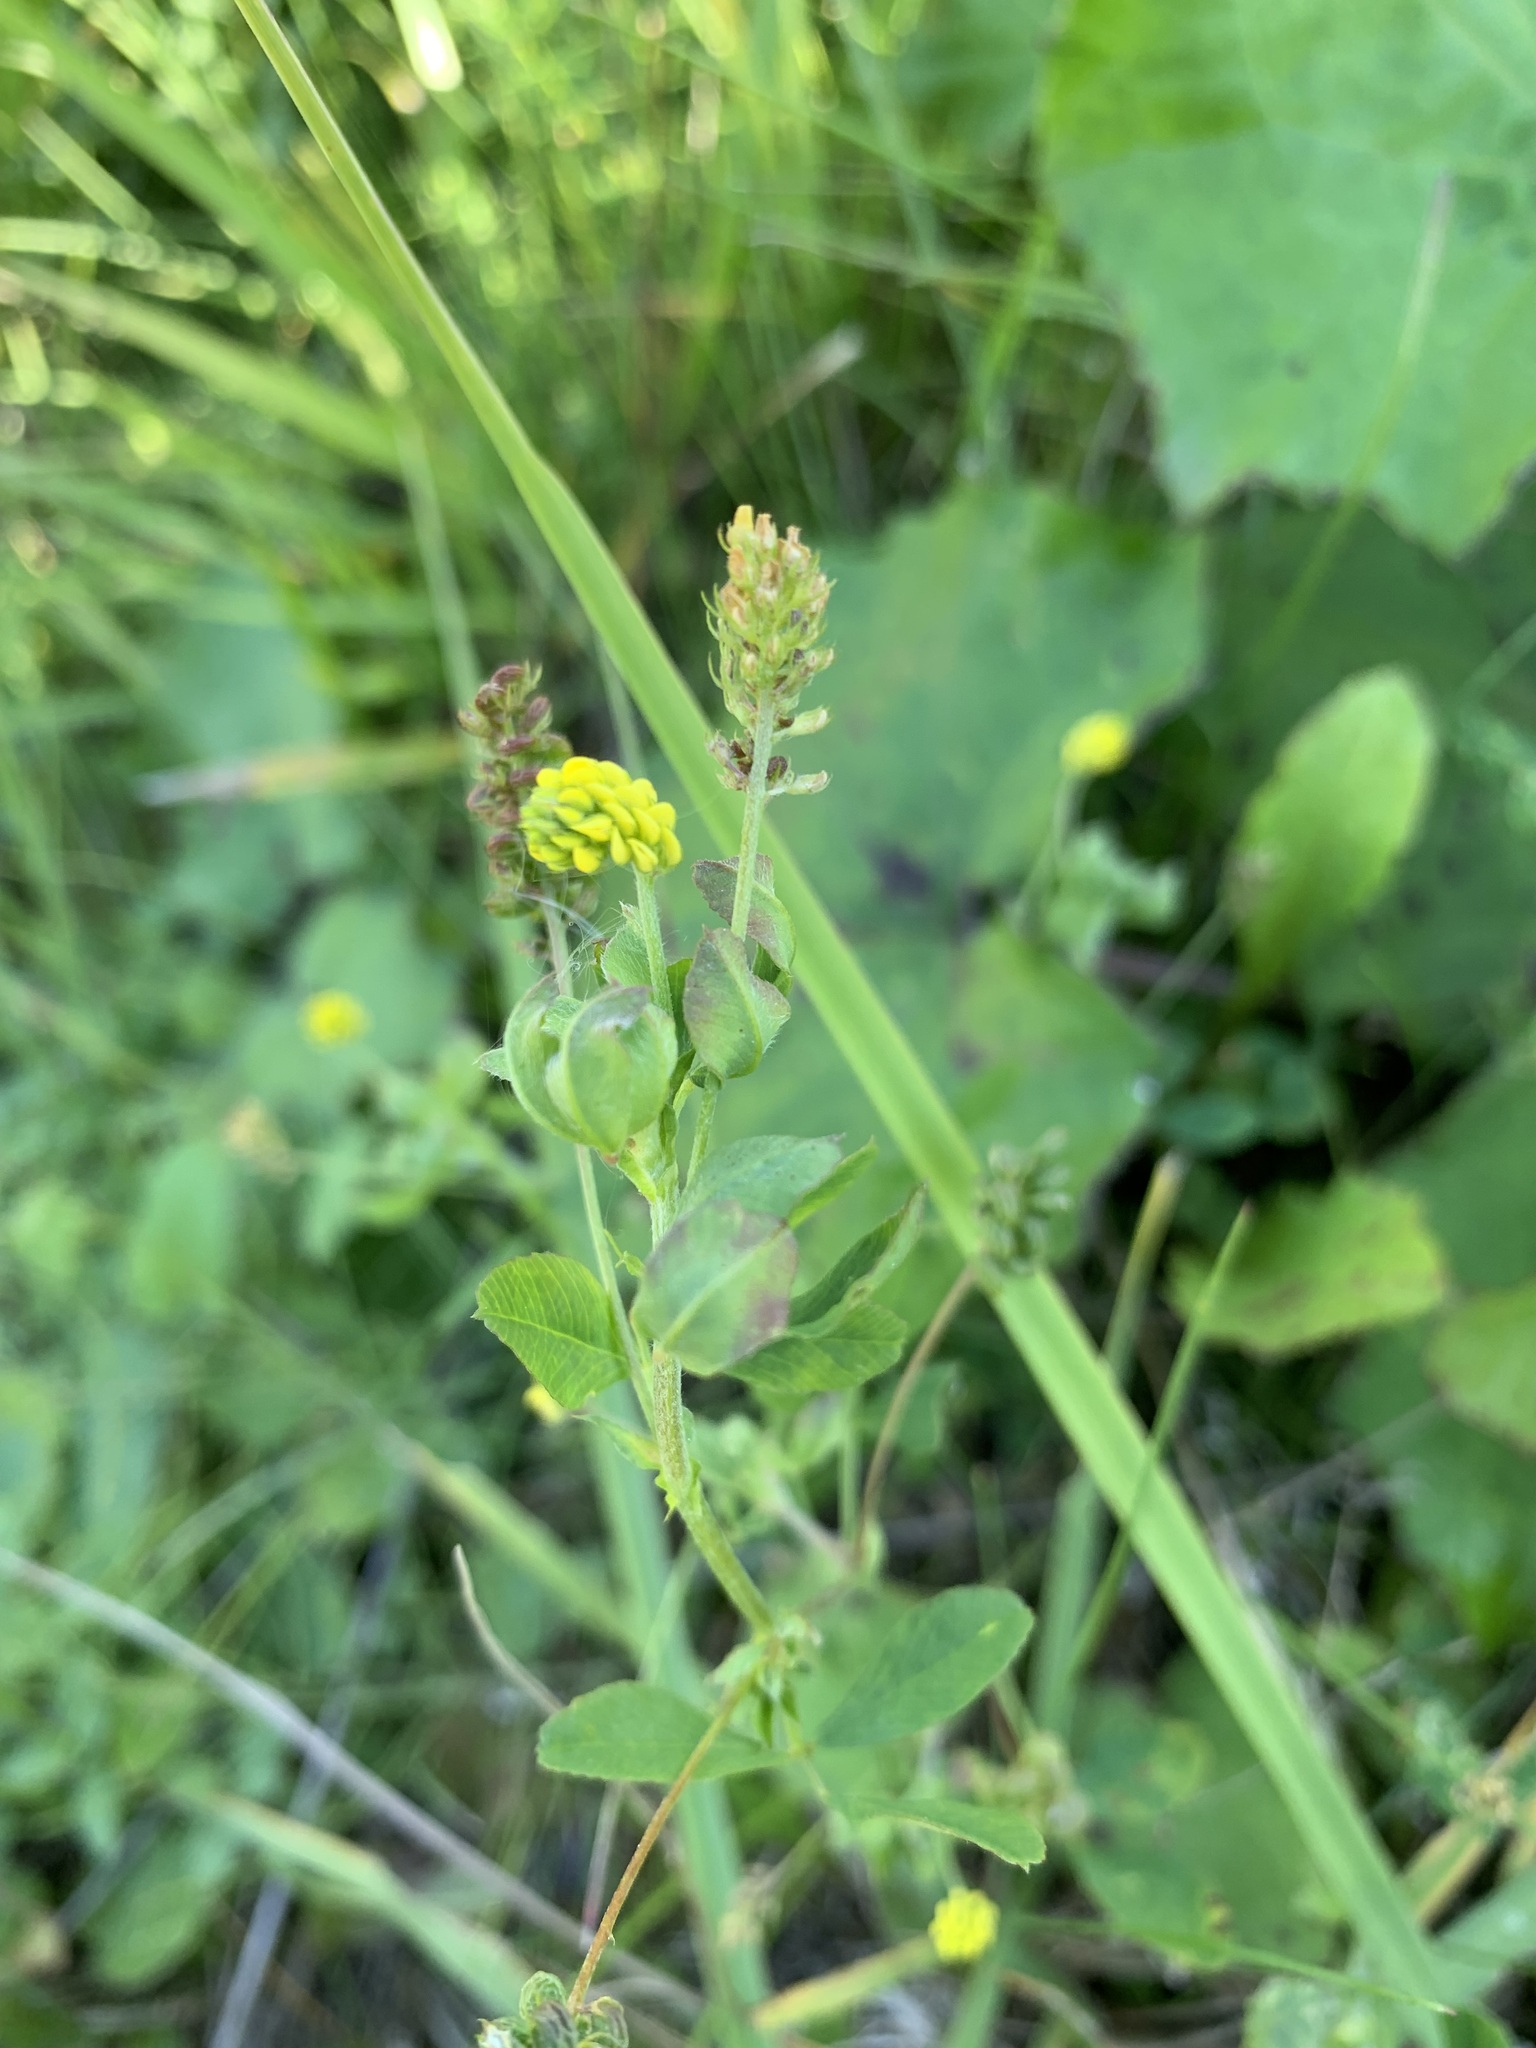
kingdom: Plantae
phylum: Tracheophyta
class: Magnoliopsida
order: Fabales
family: Fabaceae
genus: Medicago
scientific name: Medicago lupulina
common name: Black medick
